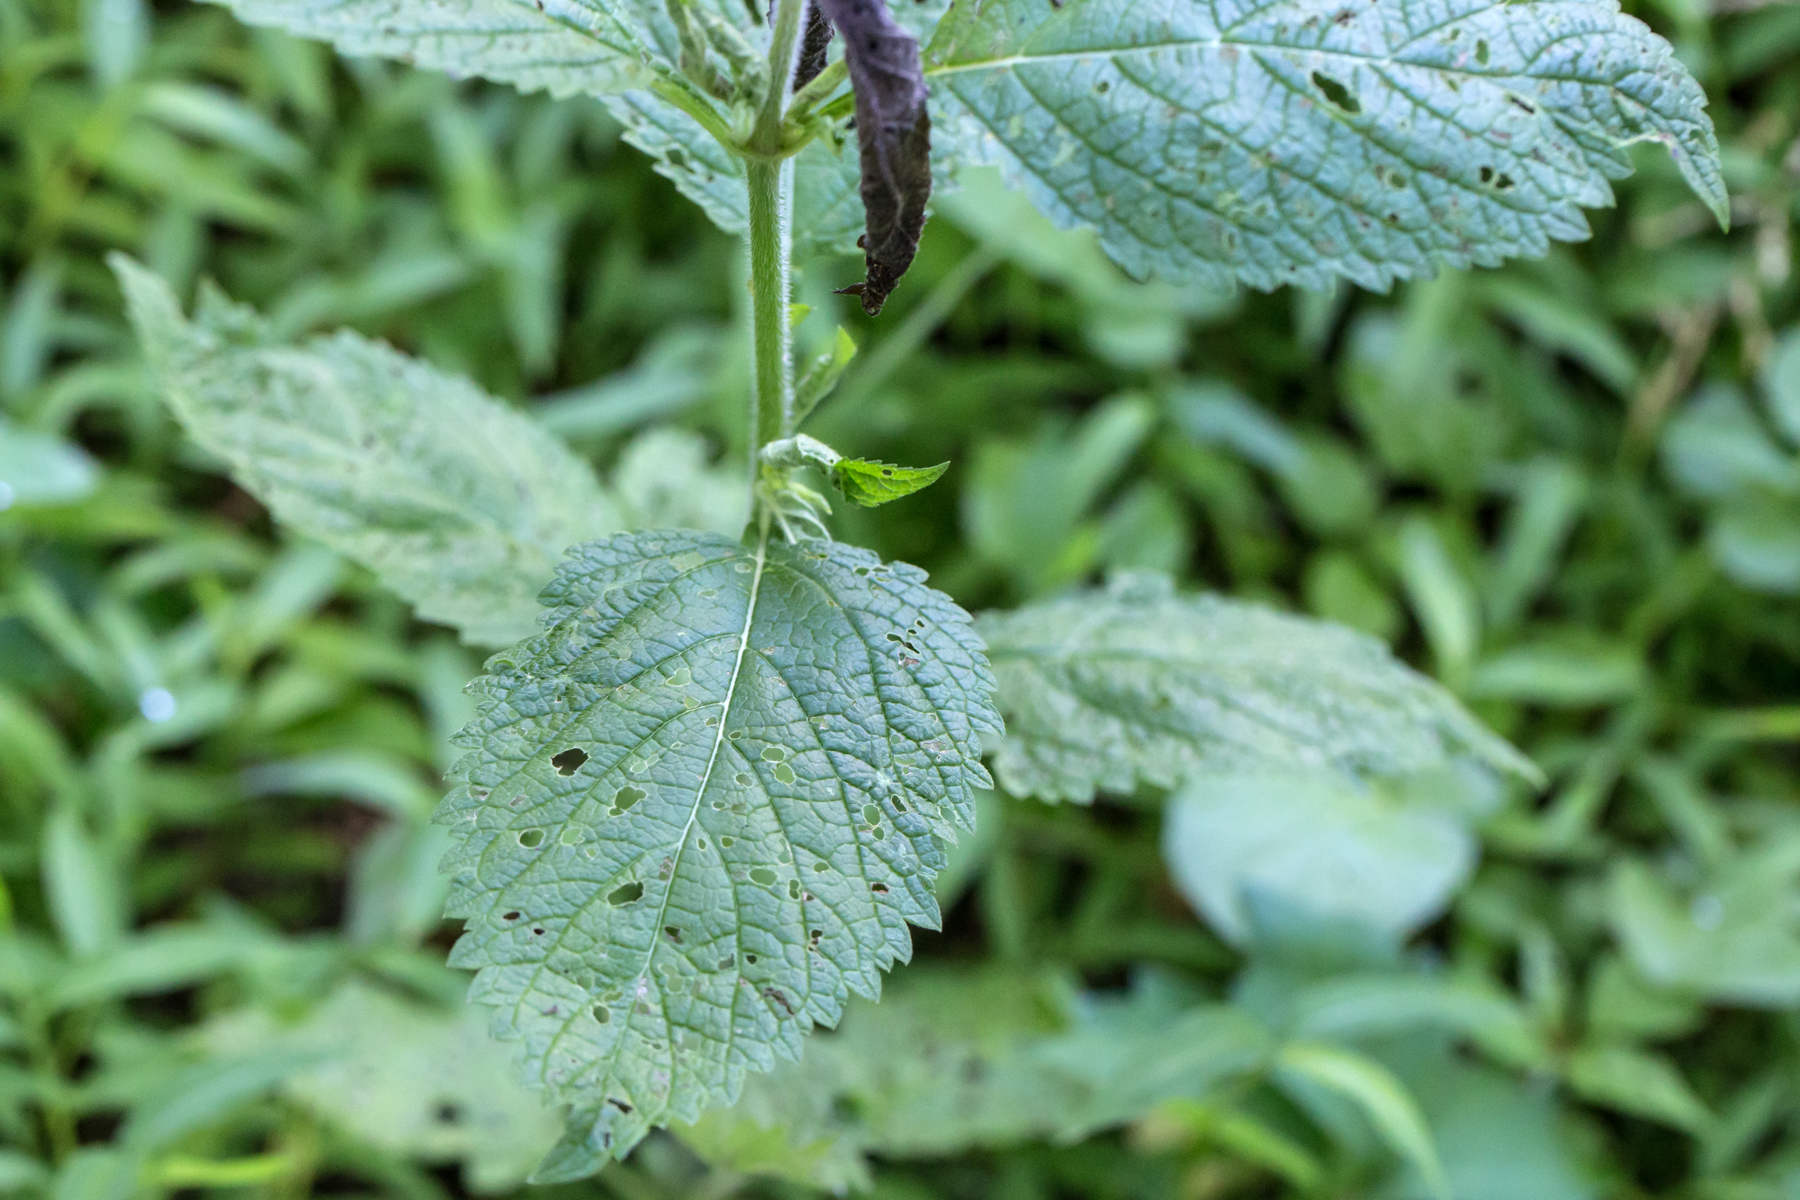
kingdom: Plantae
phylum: Tracheophyta
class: Magnoliopsida
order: Lamiales
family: Verbenaceae
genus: Verbena
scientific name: Verbena urticifolia
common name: Nettle-leaved vervain
